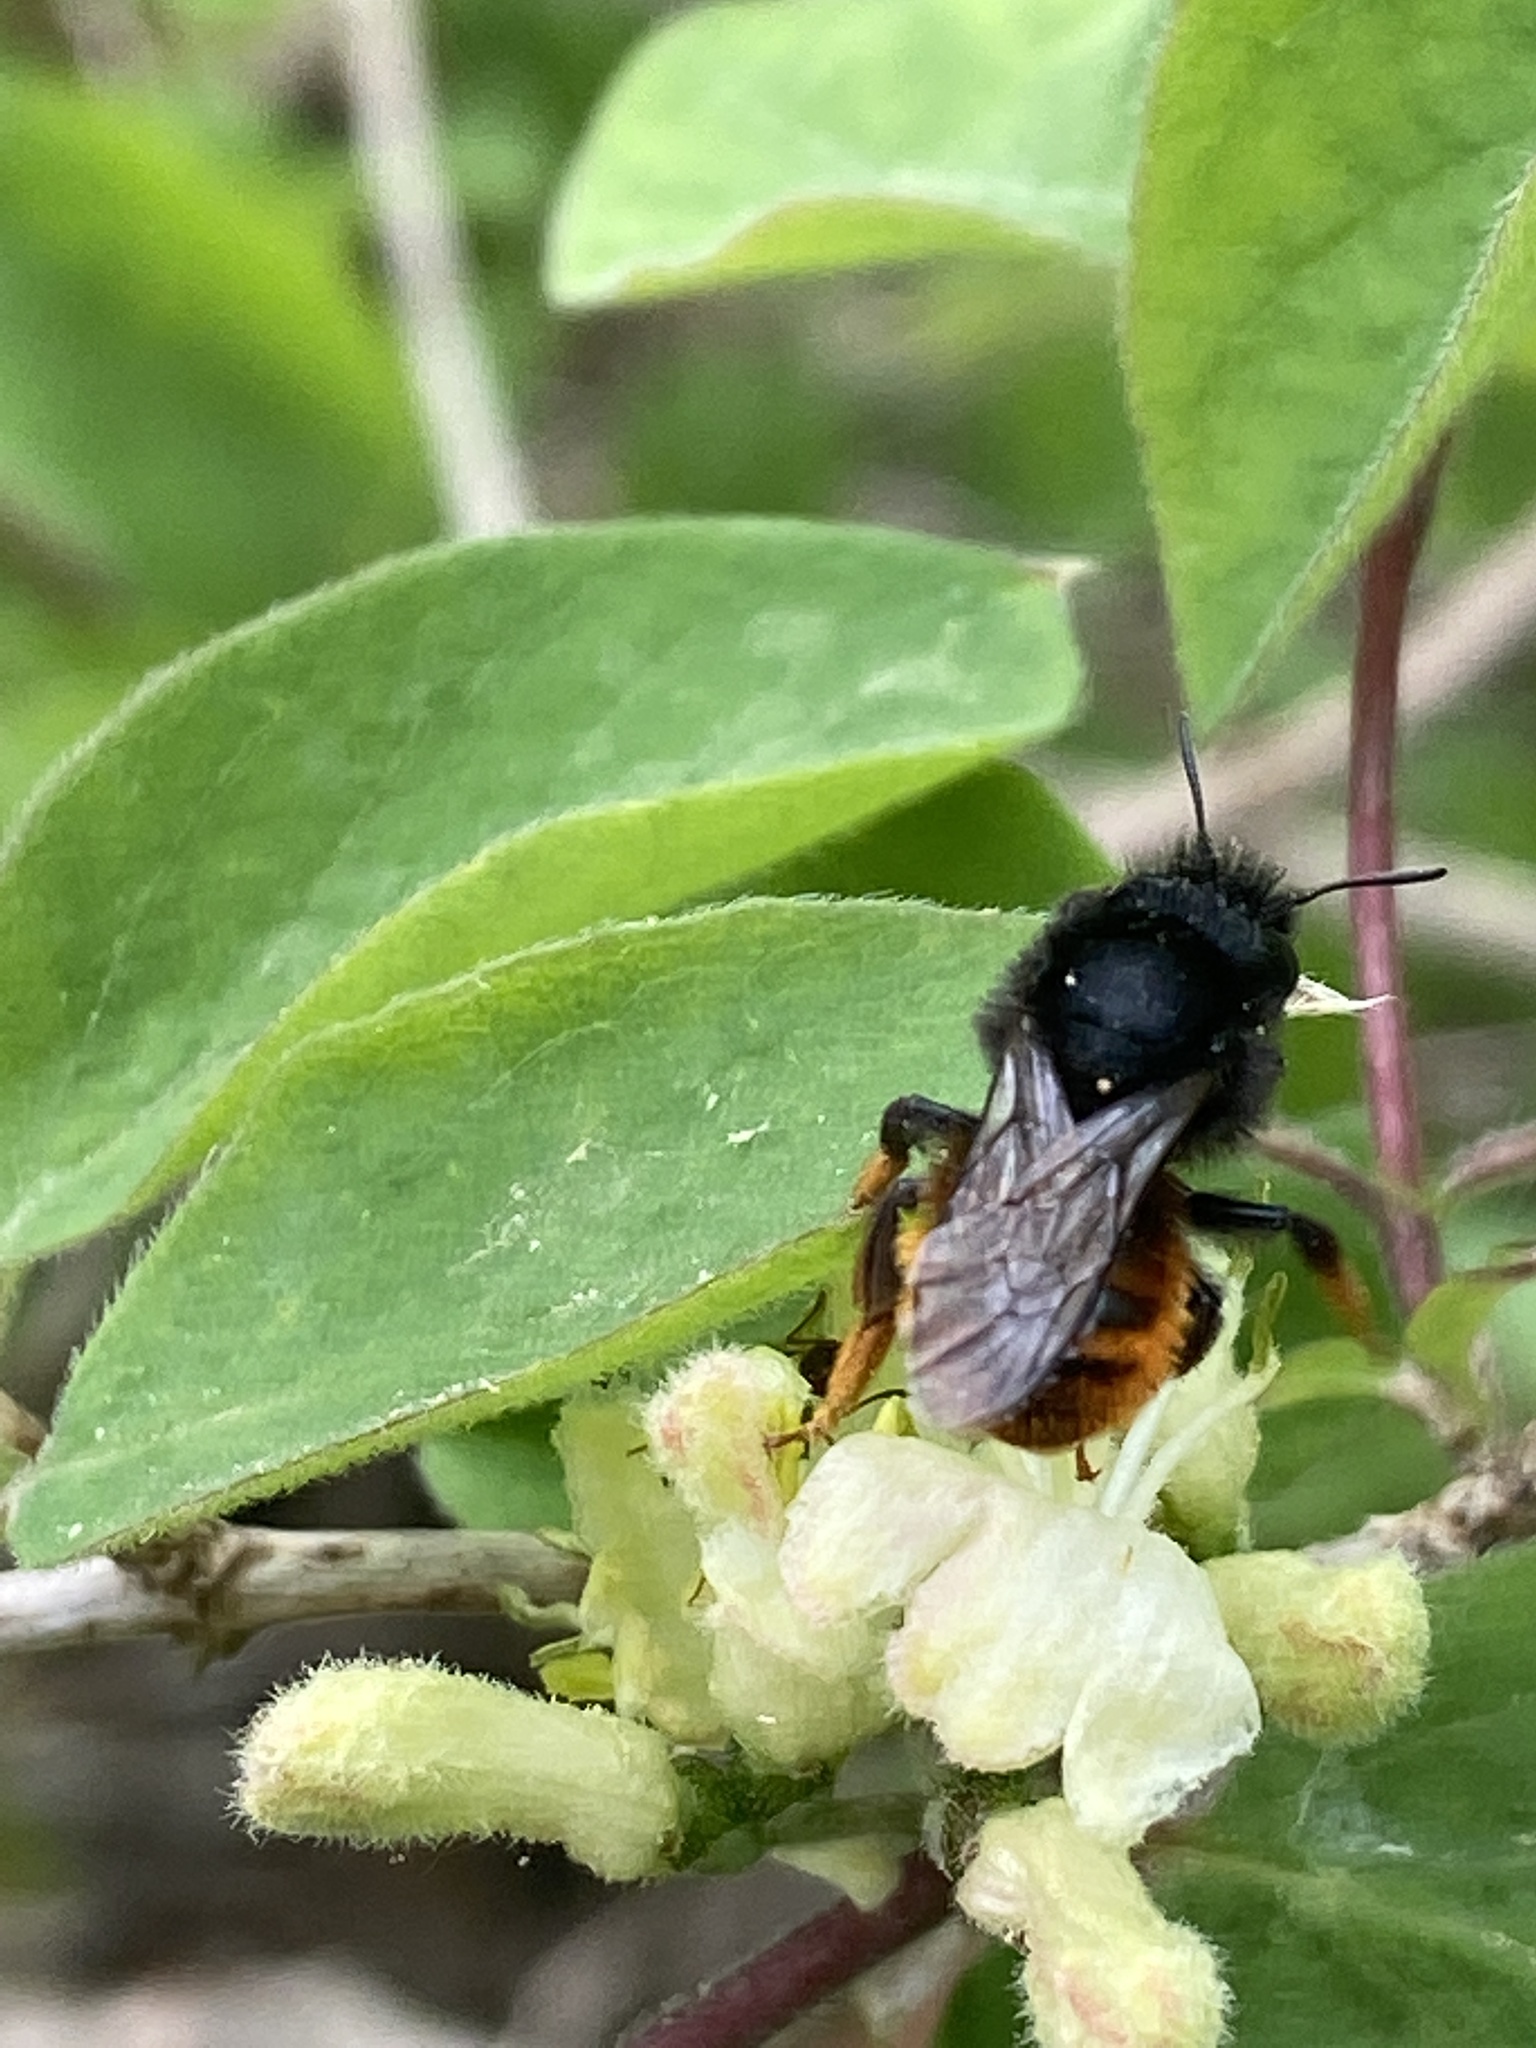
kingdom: Animalia
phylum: Arthropoda
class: Insecta
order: Hymenoptera
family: Megachilidae
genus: Osmia
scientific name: Osmia bicolor
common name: Red-tailed mason bee
